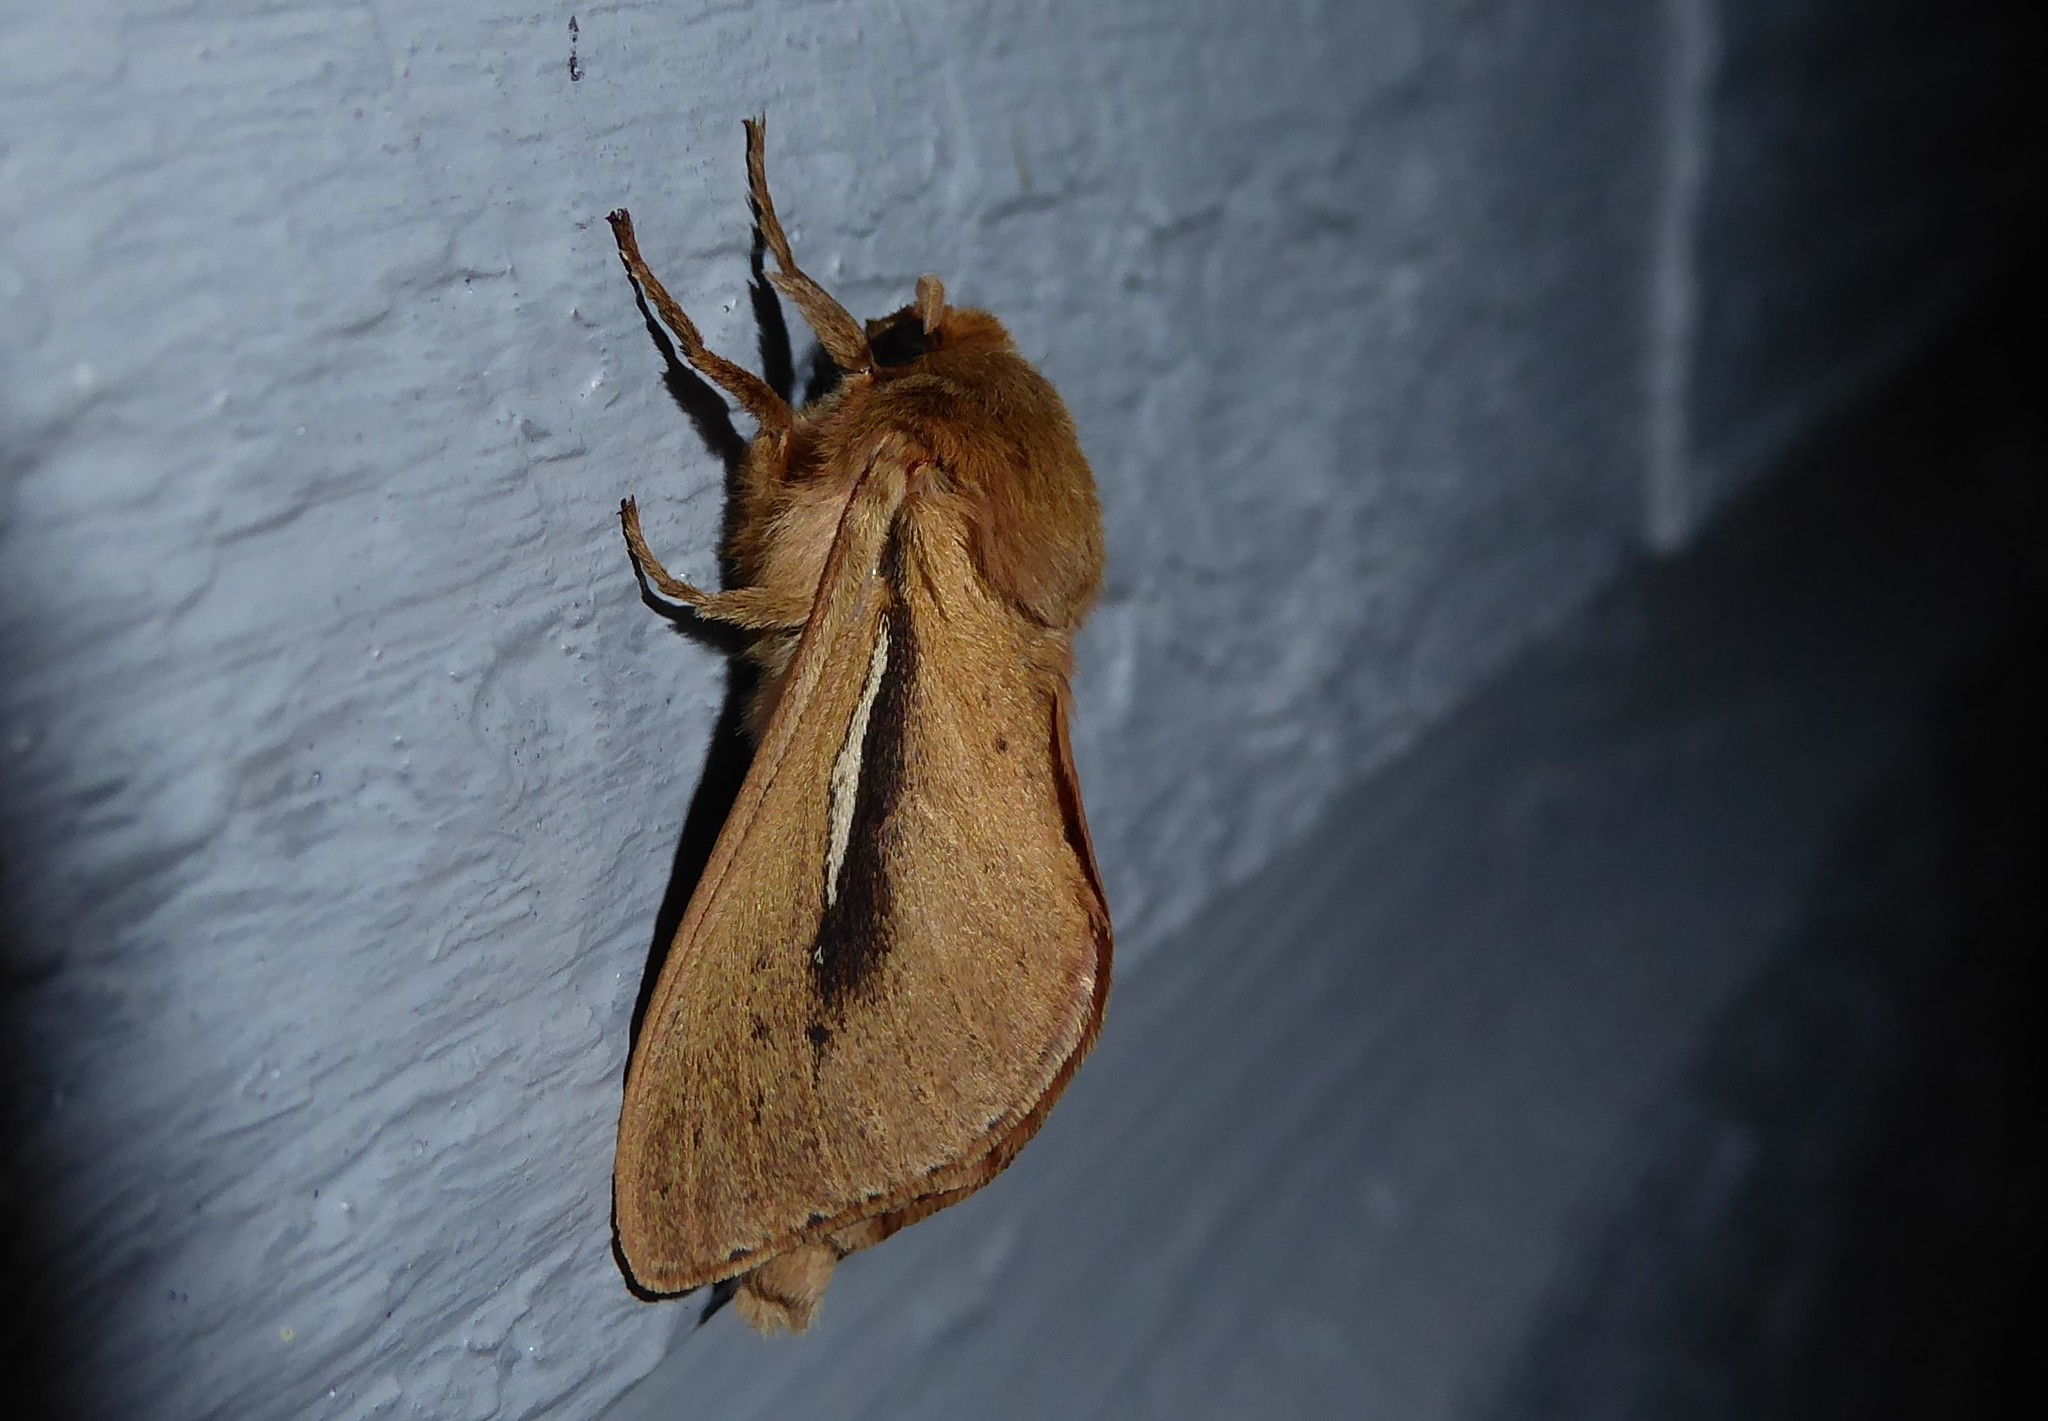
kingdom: Animalia
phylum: Arthropoda
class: Insecta
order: Lepidoptera
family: Hepialidae
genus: Wiseana
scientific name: Wiseana umbraculatus
